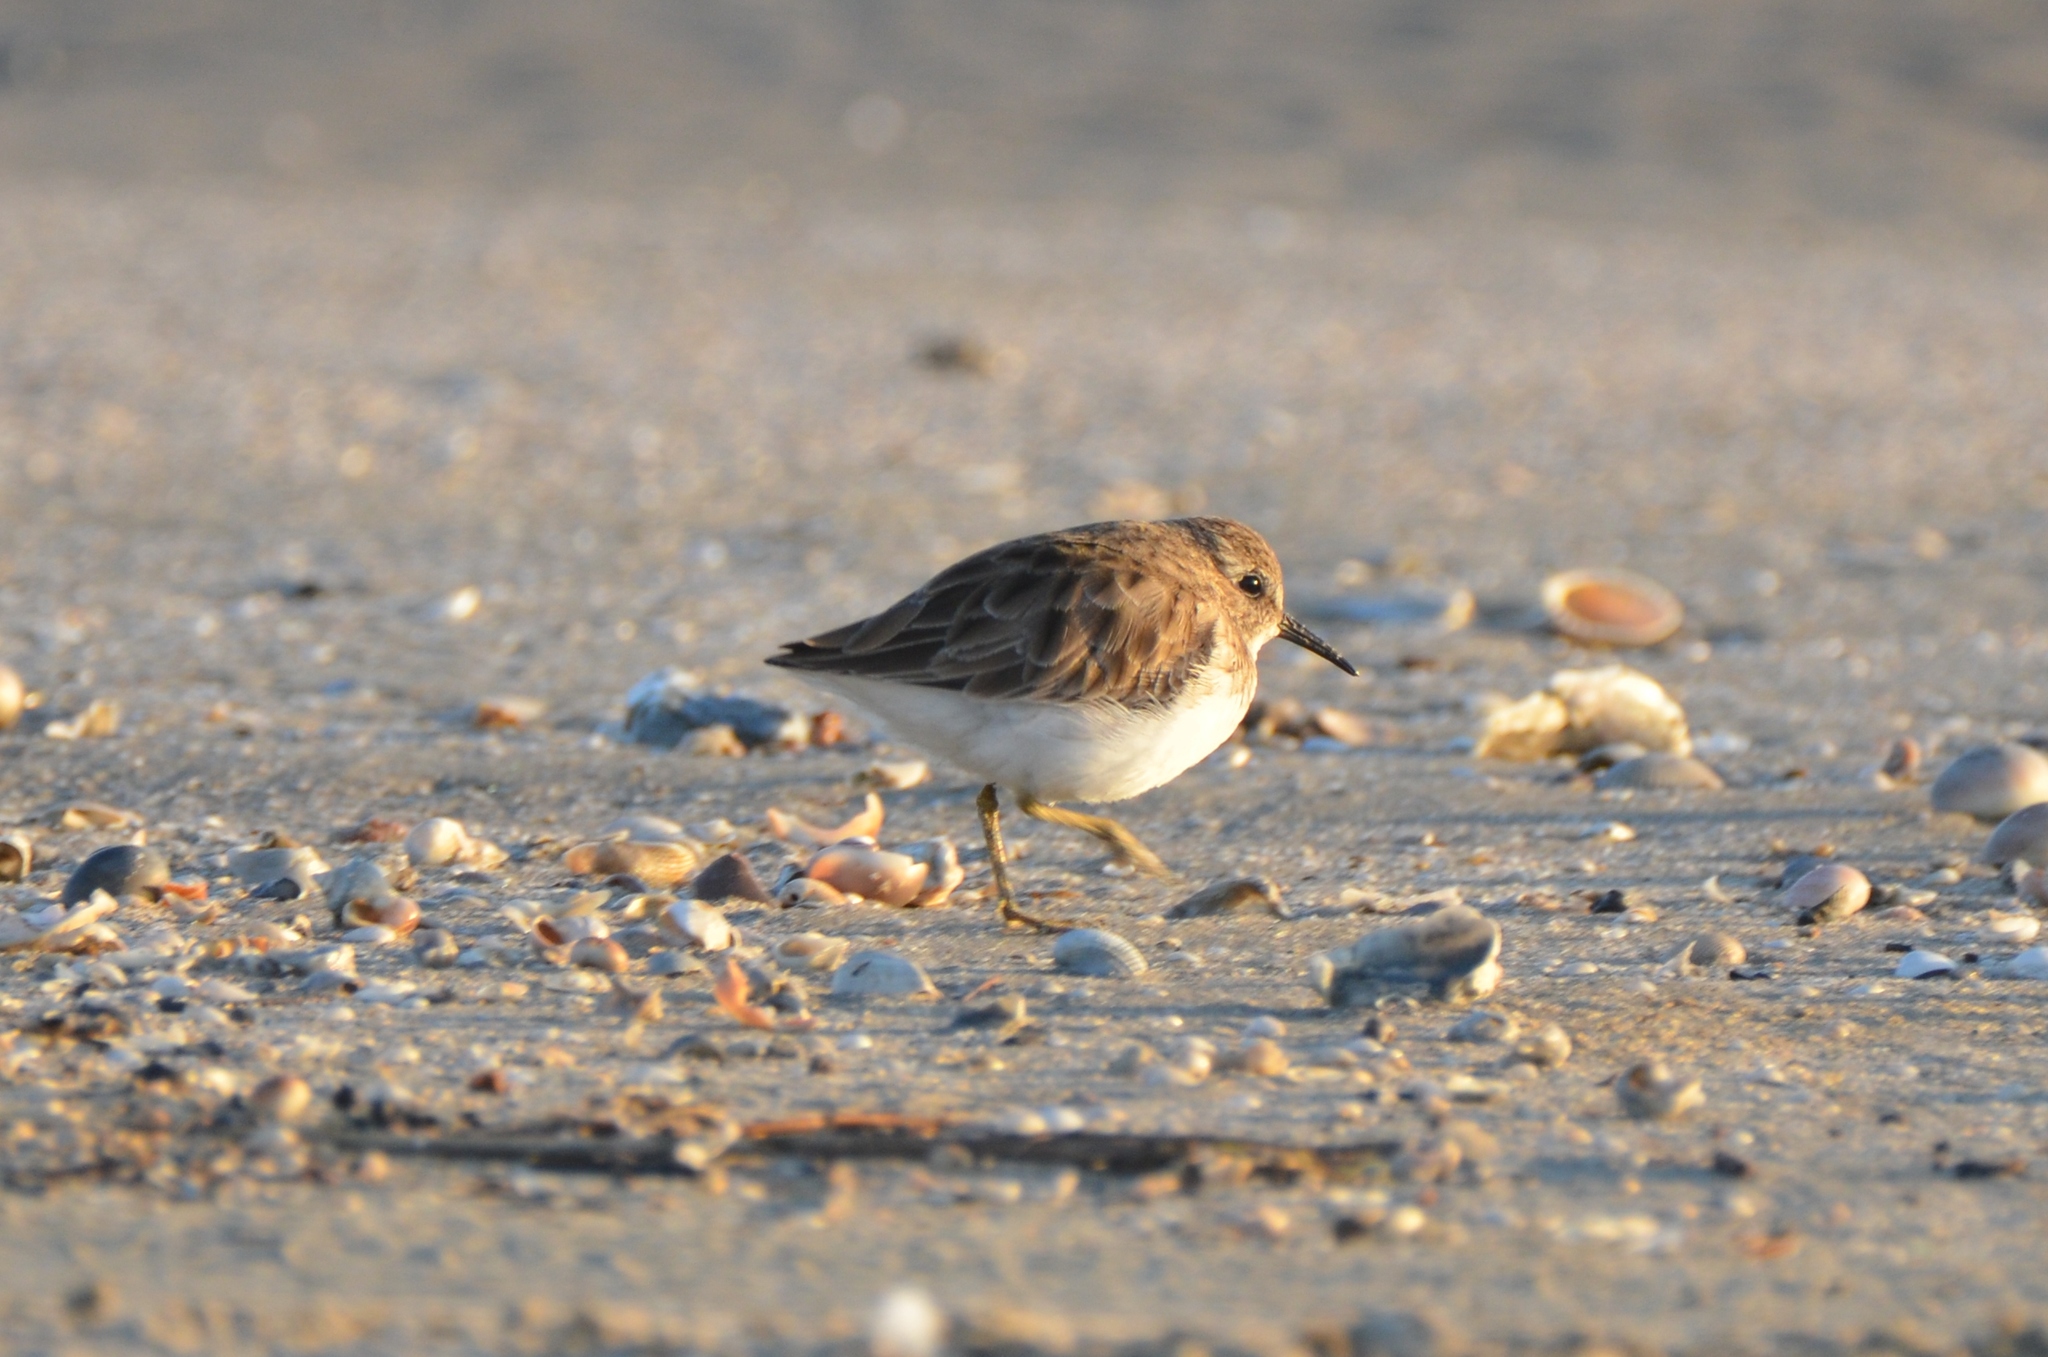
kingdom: Animalia
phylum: Chordata
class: Aves
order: Charadriiformes
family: Scolopacidae
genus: Calidris
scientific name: Calidris minutilla
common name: Least sandpiper
